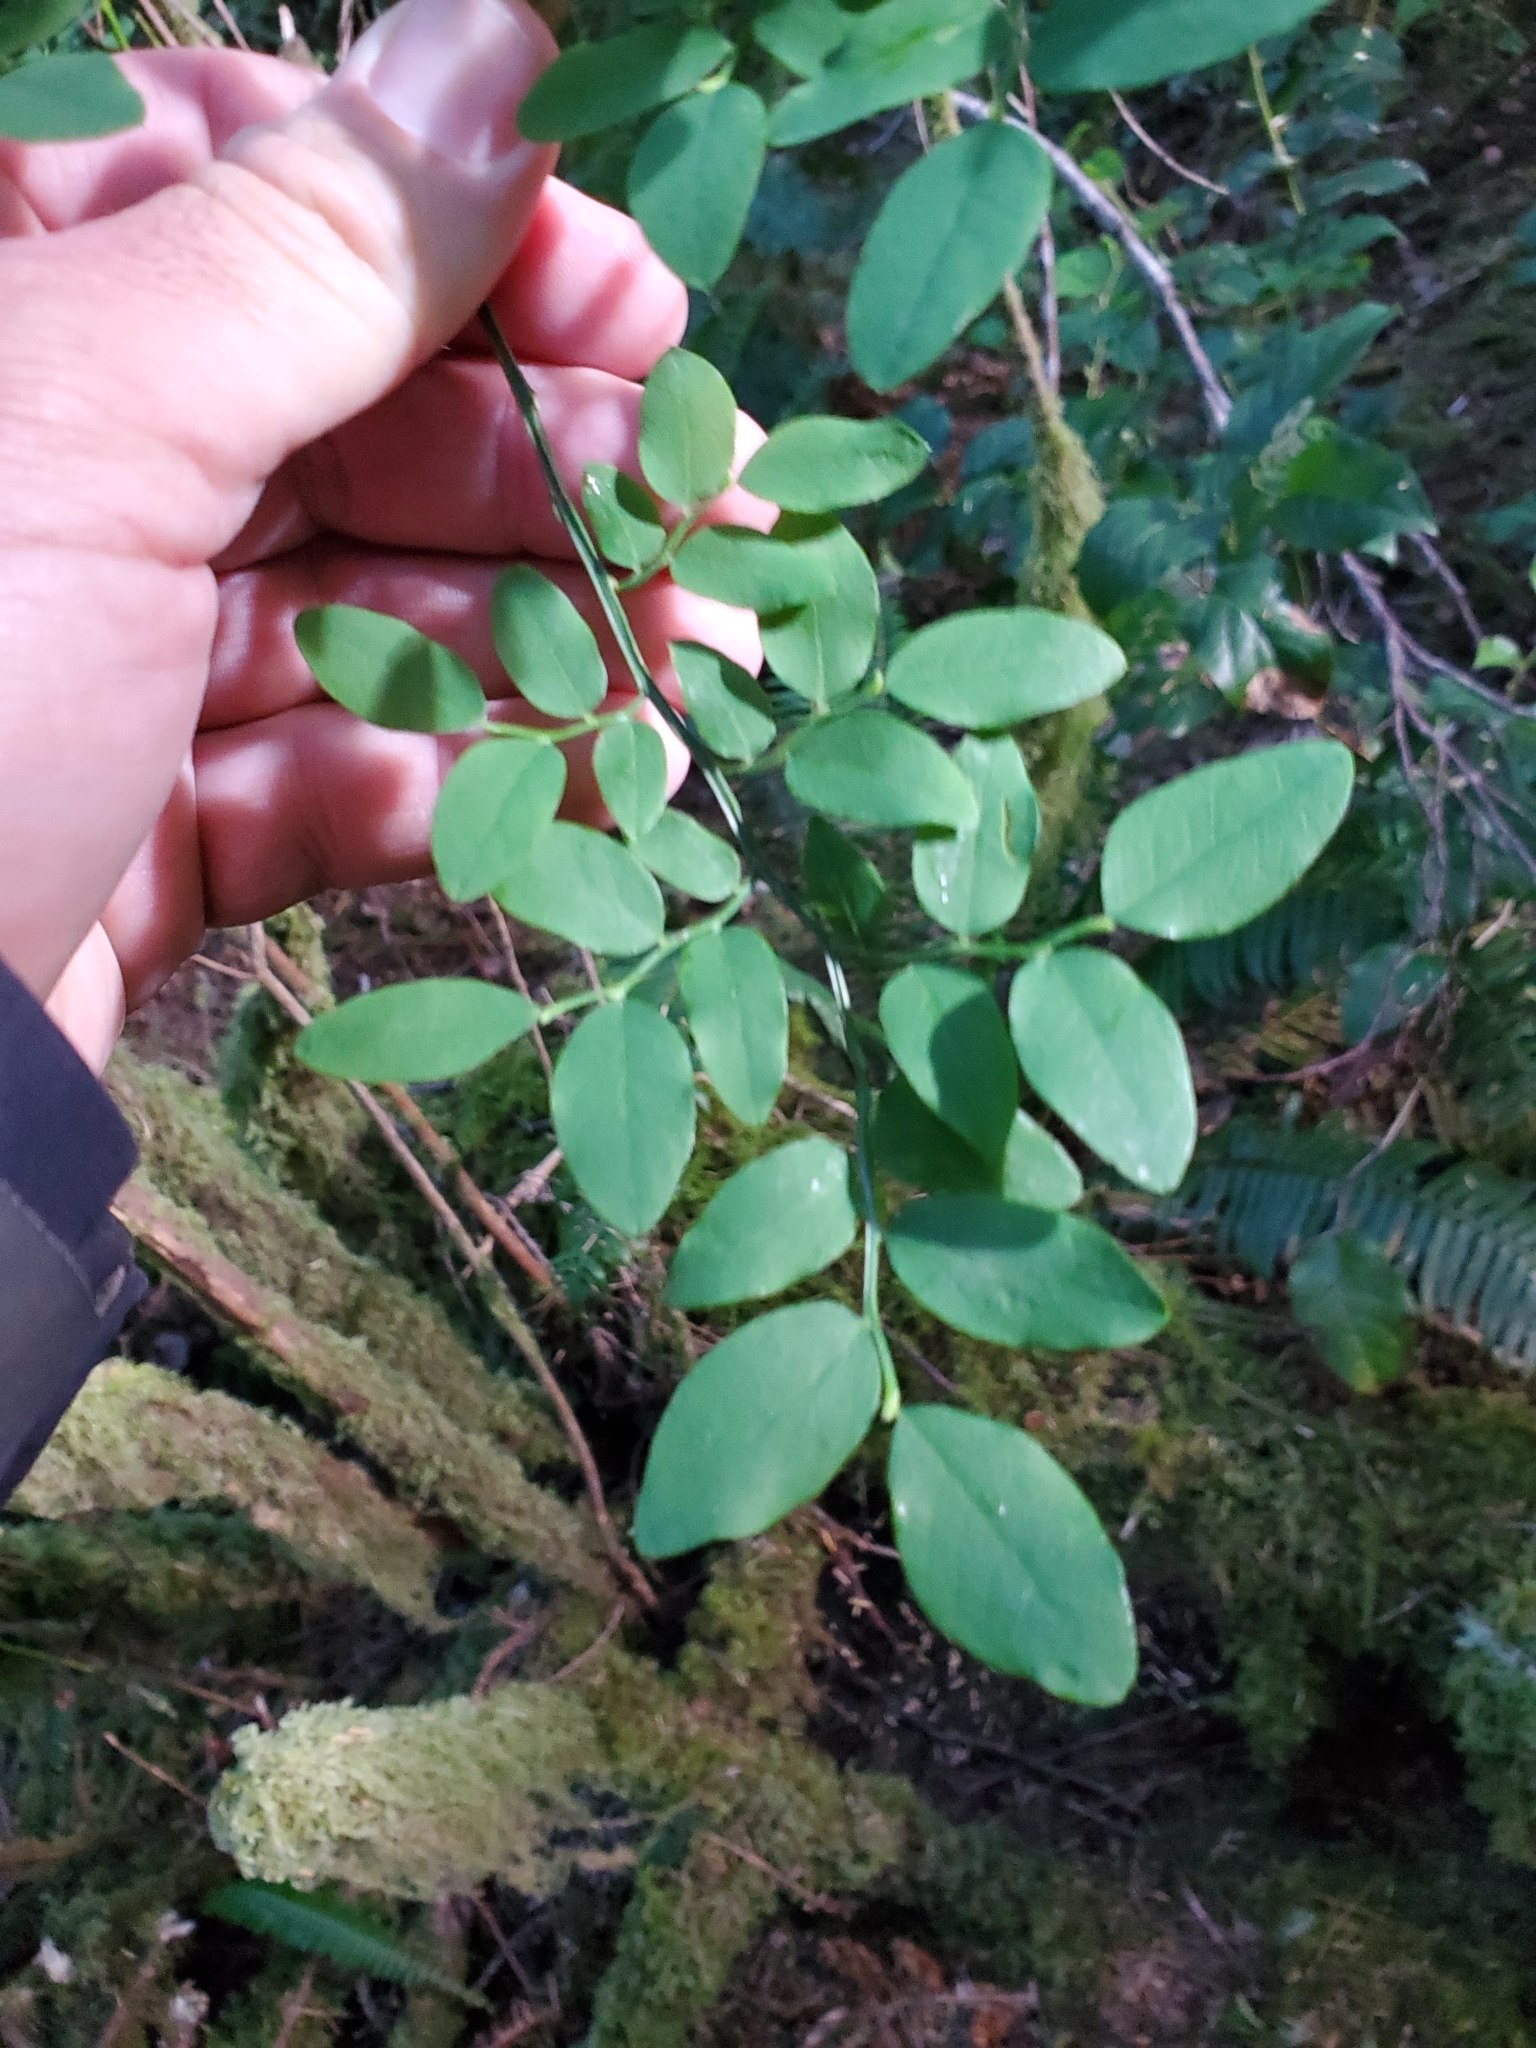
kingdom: Plantae
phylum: Tracheophyta
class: Magnoliopsida
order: Ericales
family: Ericaceae
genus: Vaccinium
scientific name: Vaccinium parvifolium
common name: Red-huckleberry
